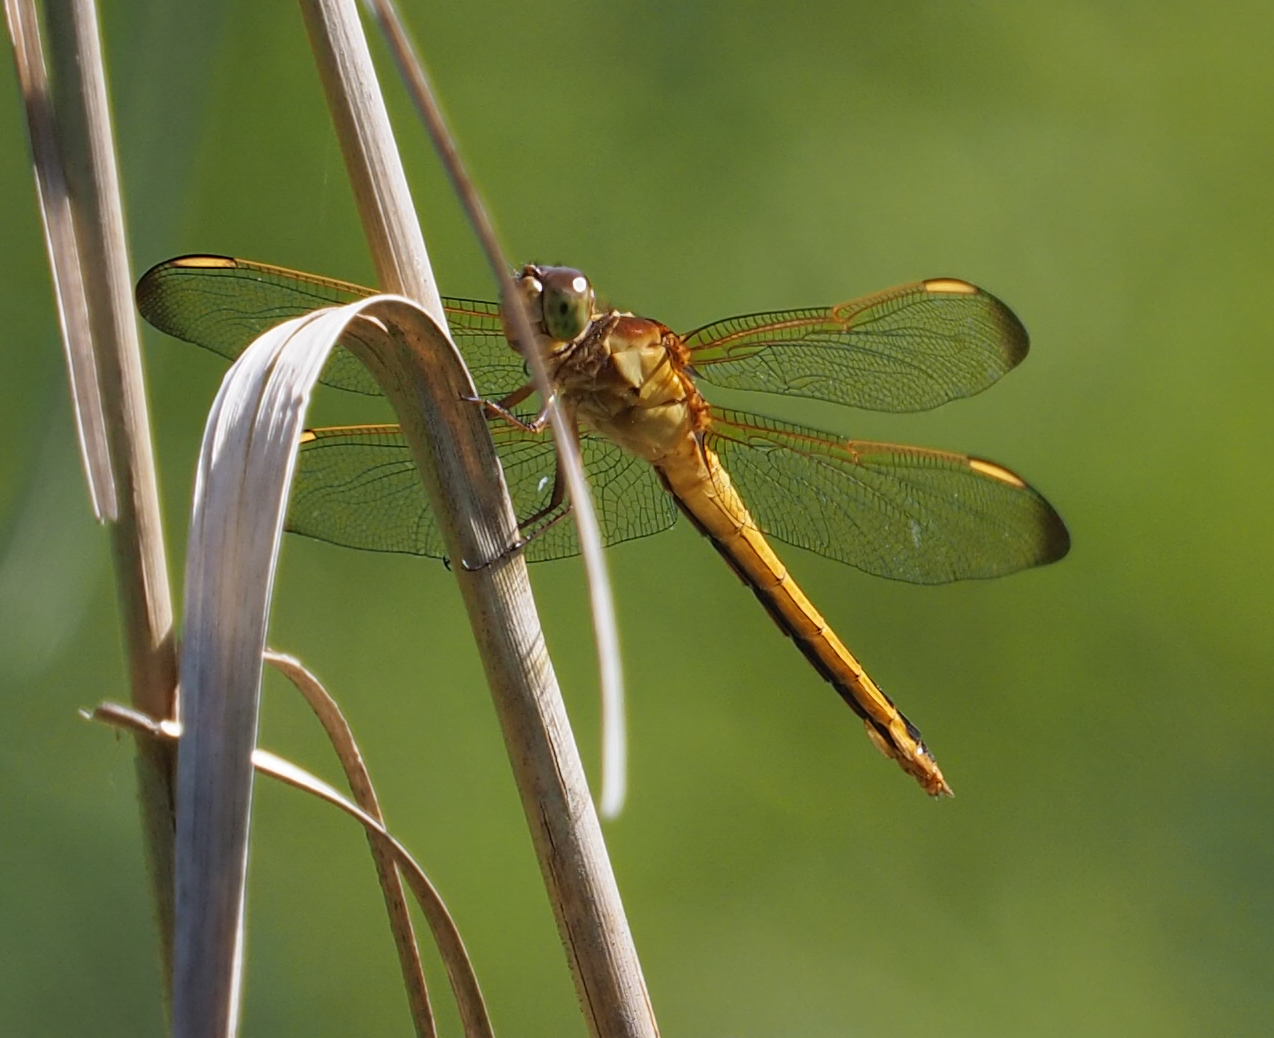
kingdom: Animalia
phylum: Arthropoda
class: Insecta
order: Odonata
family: Libellulidae
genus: Libellula
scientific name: Libellula needhami
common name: Needham's skimmer
